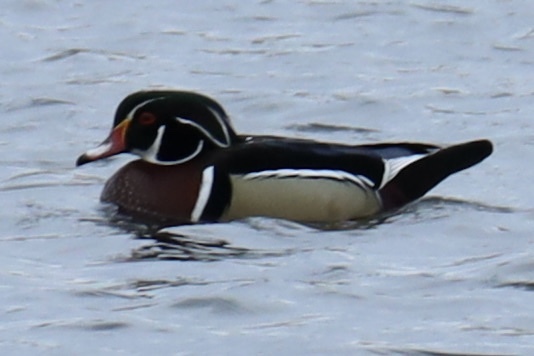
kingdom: Animalia
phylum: Chordata
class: Aves
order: Anseriformes
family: Anatidae
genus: Aix
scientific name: Aix sponsa
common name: Wood duck
